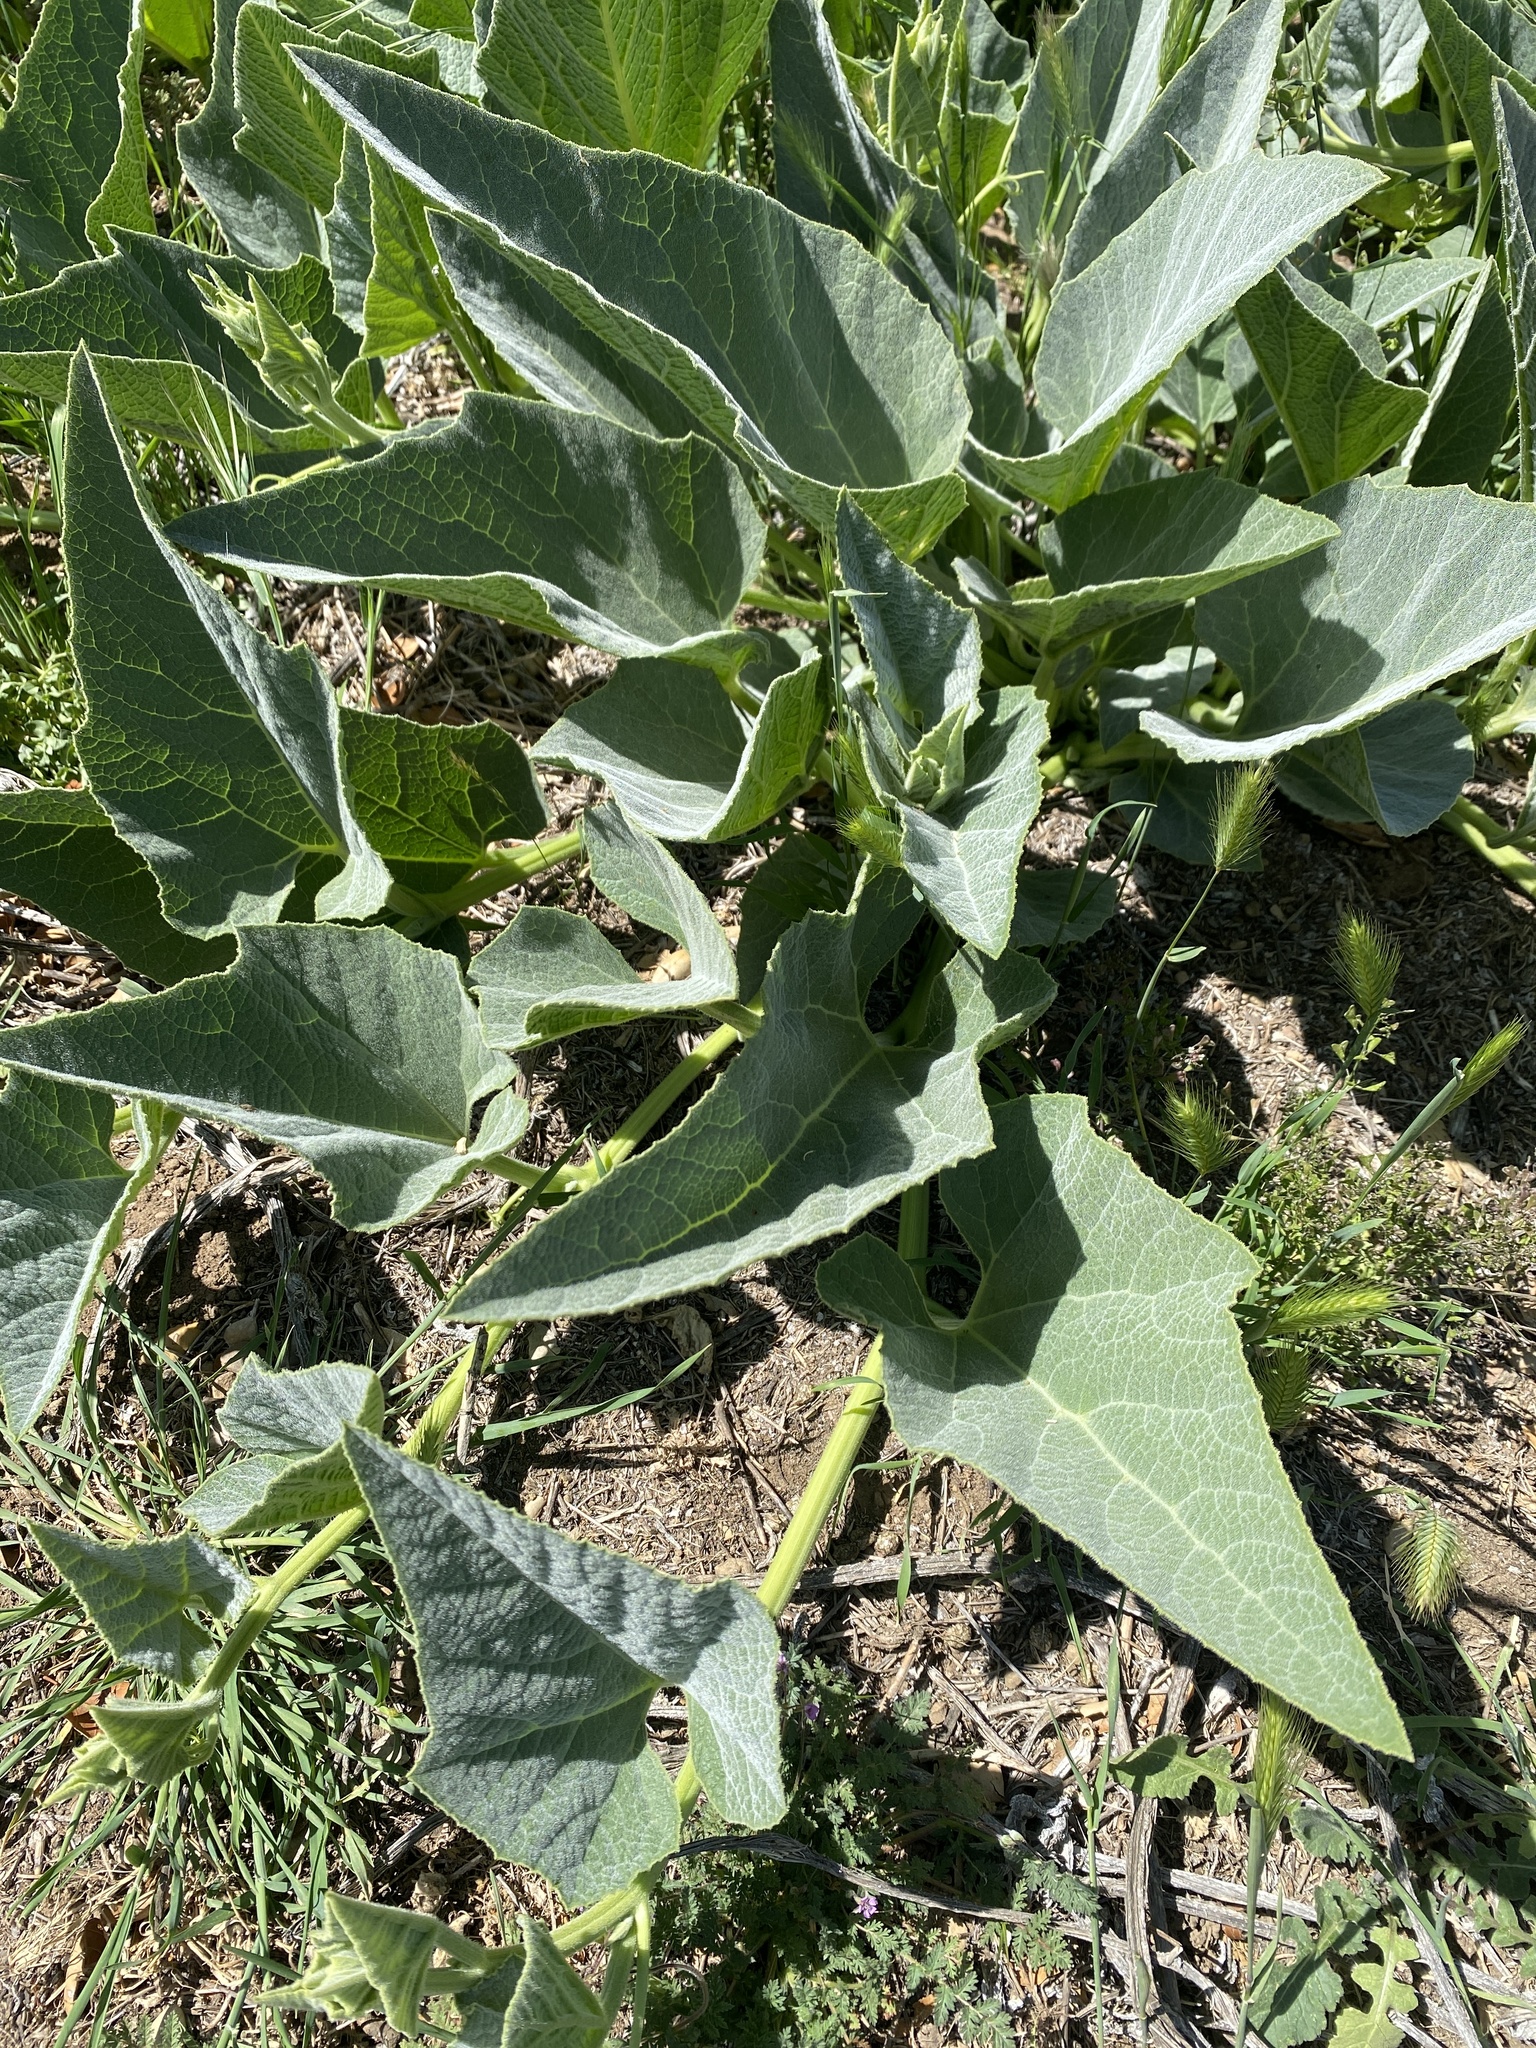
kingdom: Plantae
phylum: Tracheophyta
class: Magnoliopsida
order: Cucurbitales
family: Cucurbitaceae
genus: Cucurbita
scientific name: Cucurbita foetidissima
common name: Buffalo gourd
